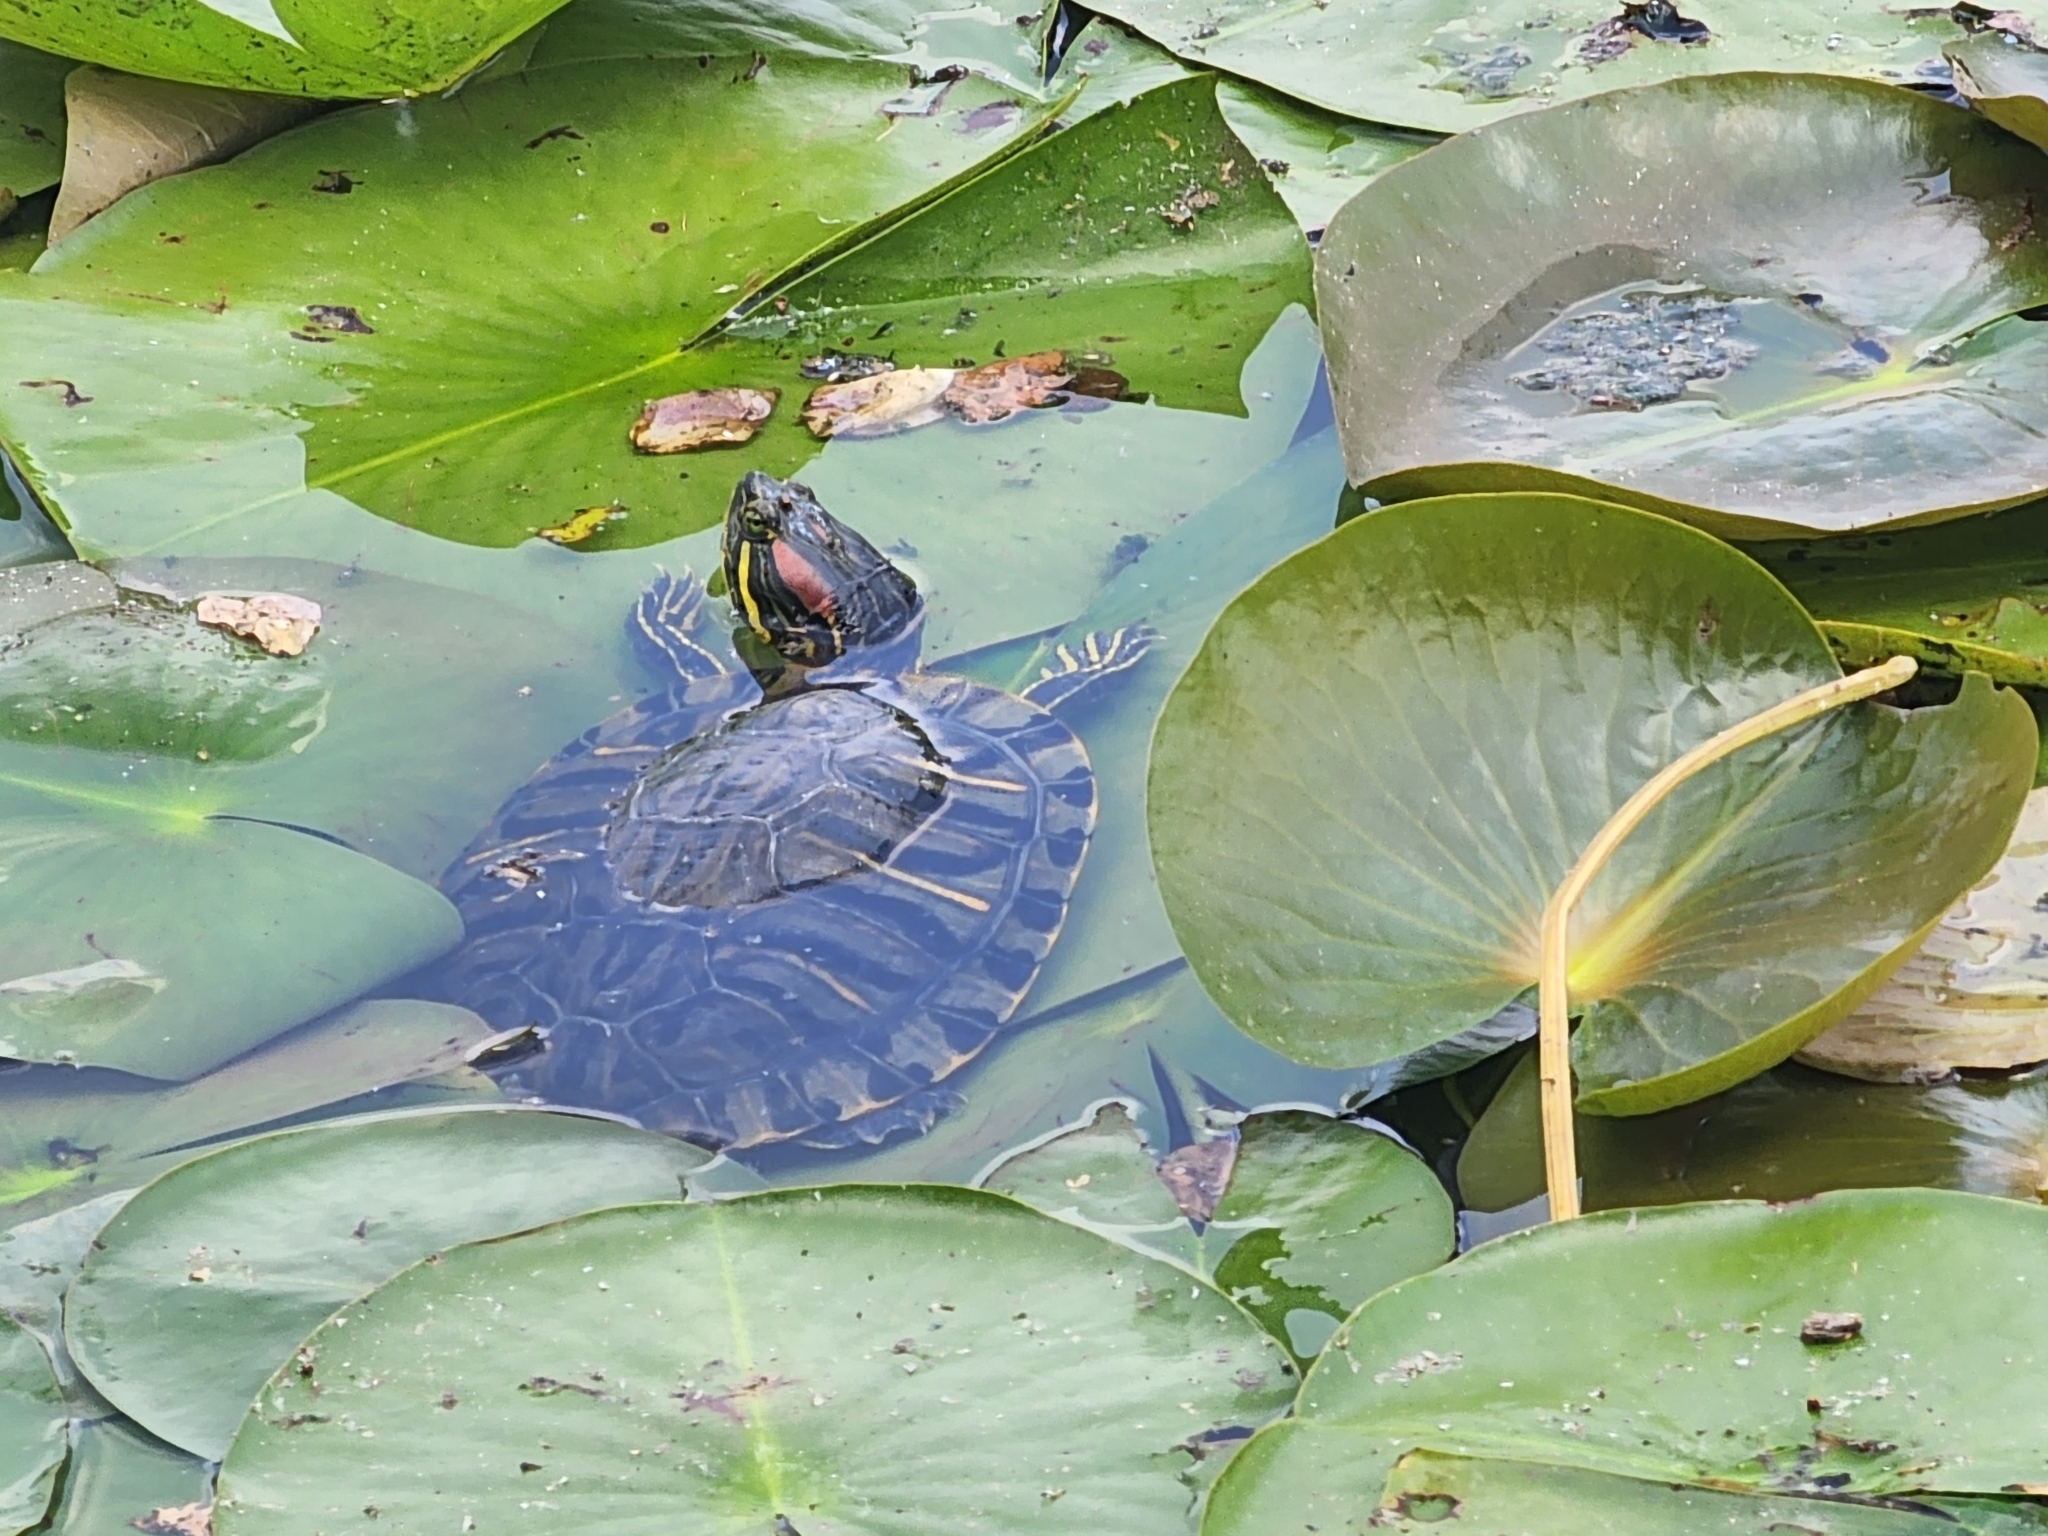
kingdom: Animalia
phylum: Chordata
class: Testudines
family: Emydidae
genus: Trachemys
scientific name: Trachemys scripta
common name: Slider
